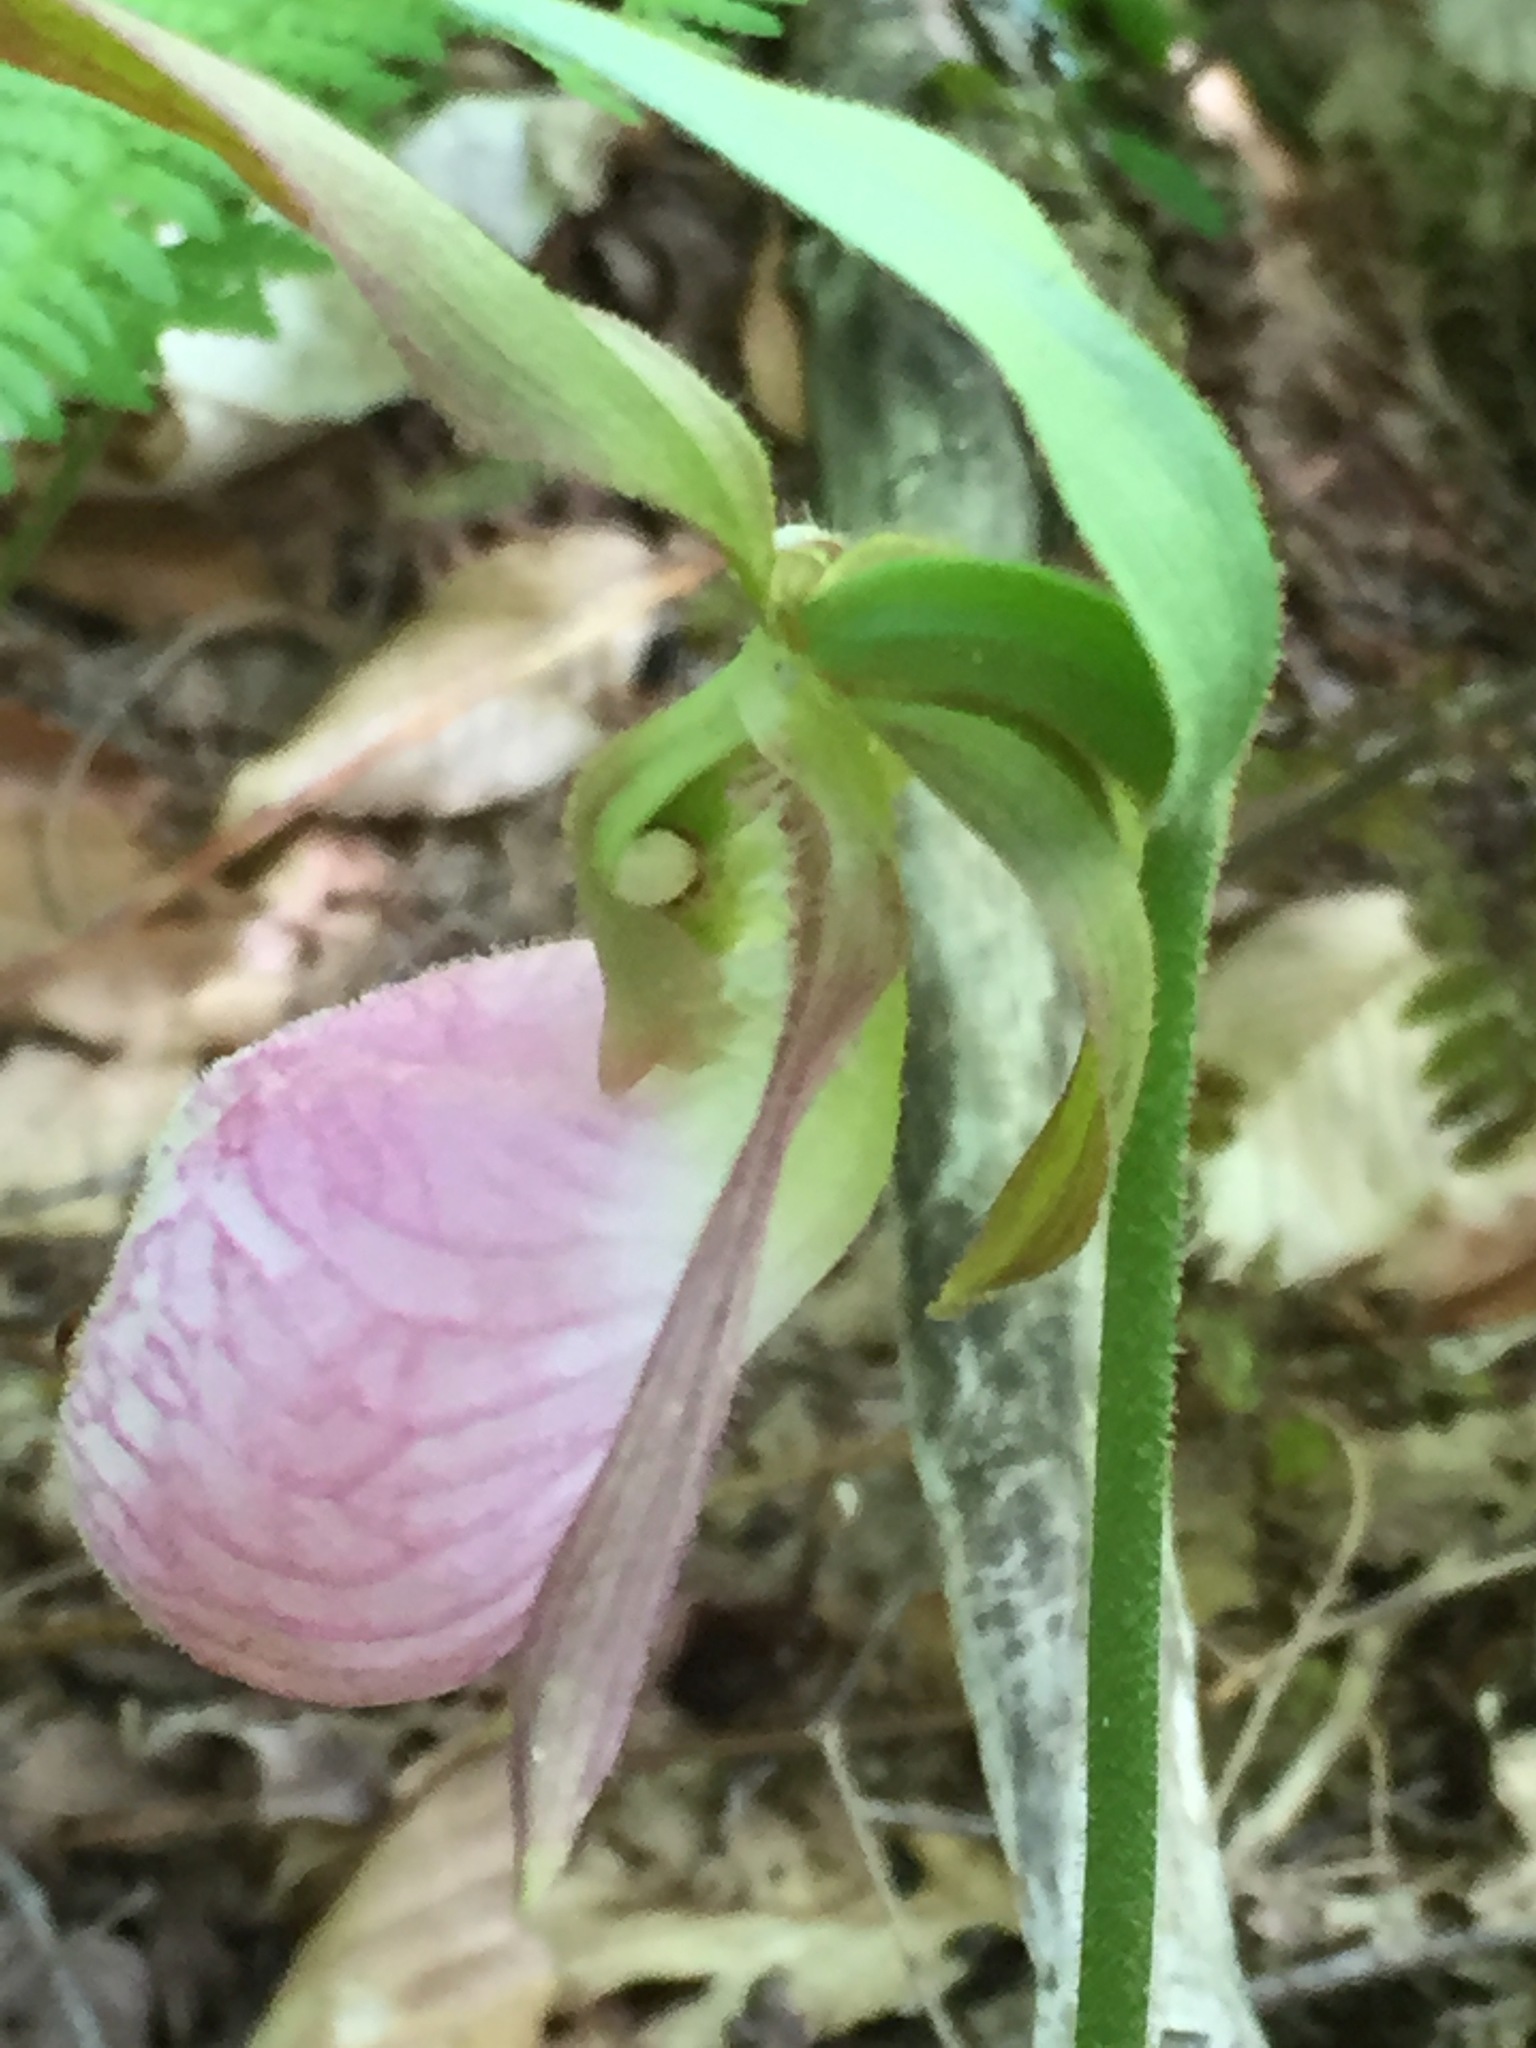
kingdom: Plantae
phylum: Tracheophyta
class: Liliopsida
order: Asparagales
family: Orchidaceae
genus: Cypripedium
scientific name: Cypripedium acaule
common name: Pink lady's-slipper
